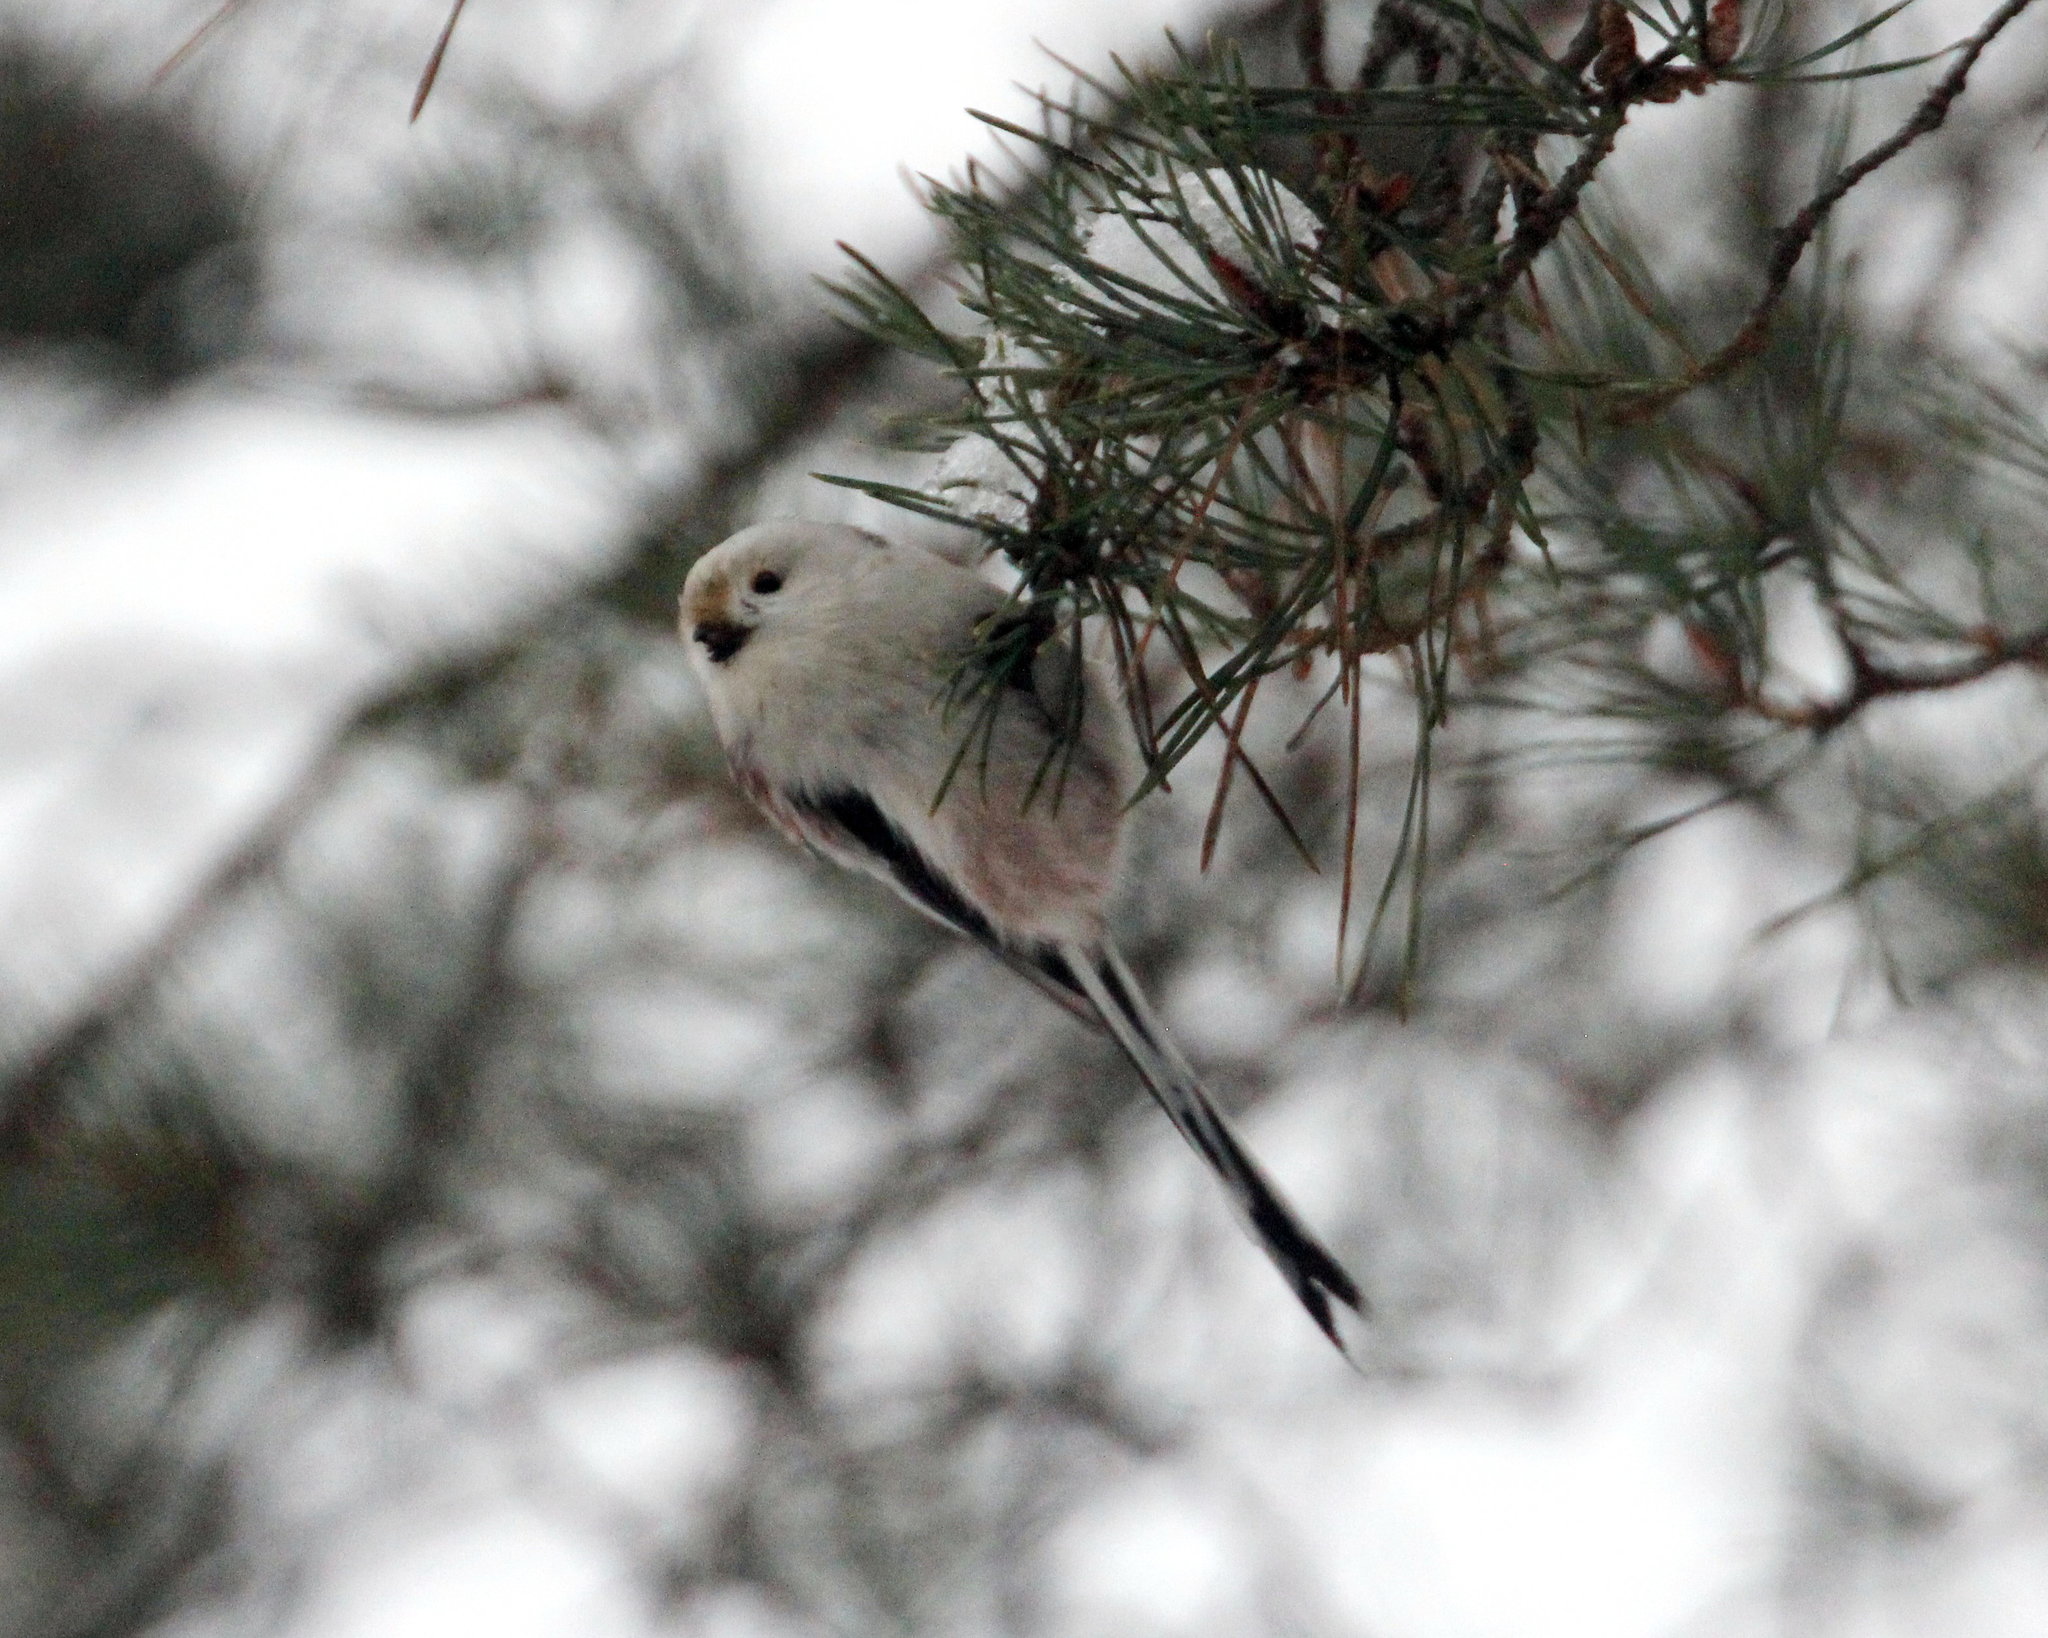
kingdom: Animalia
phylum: Chordata
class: Aves
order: Passeriformes
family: Aegithalidae
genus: Aegithalos
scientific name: Aegithalos caudatus
